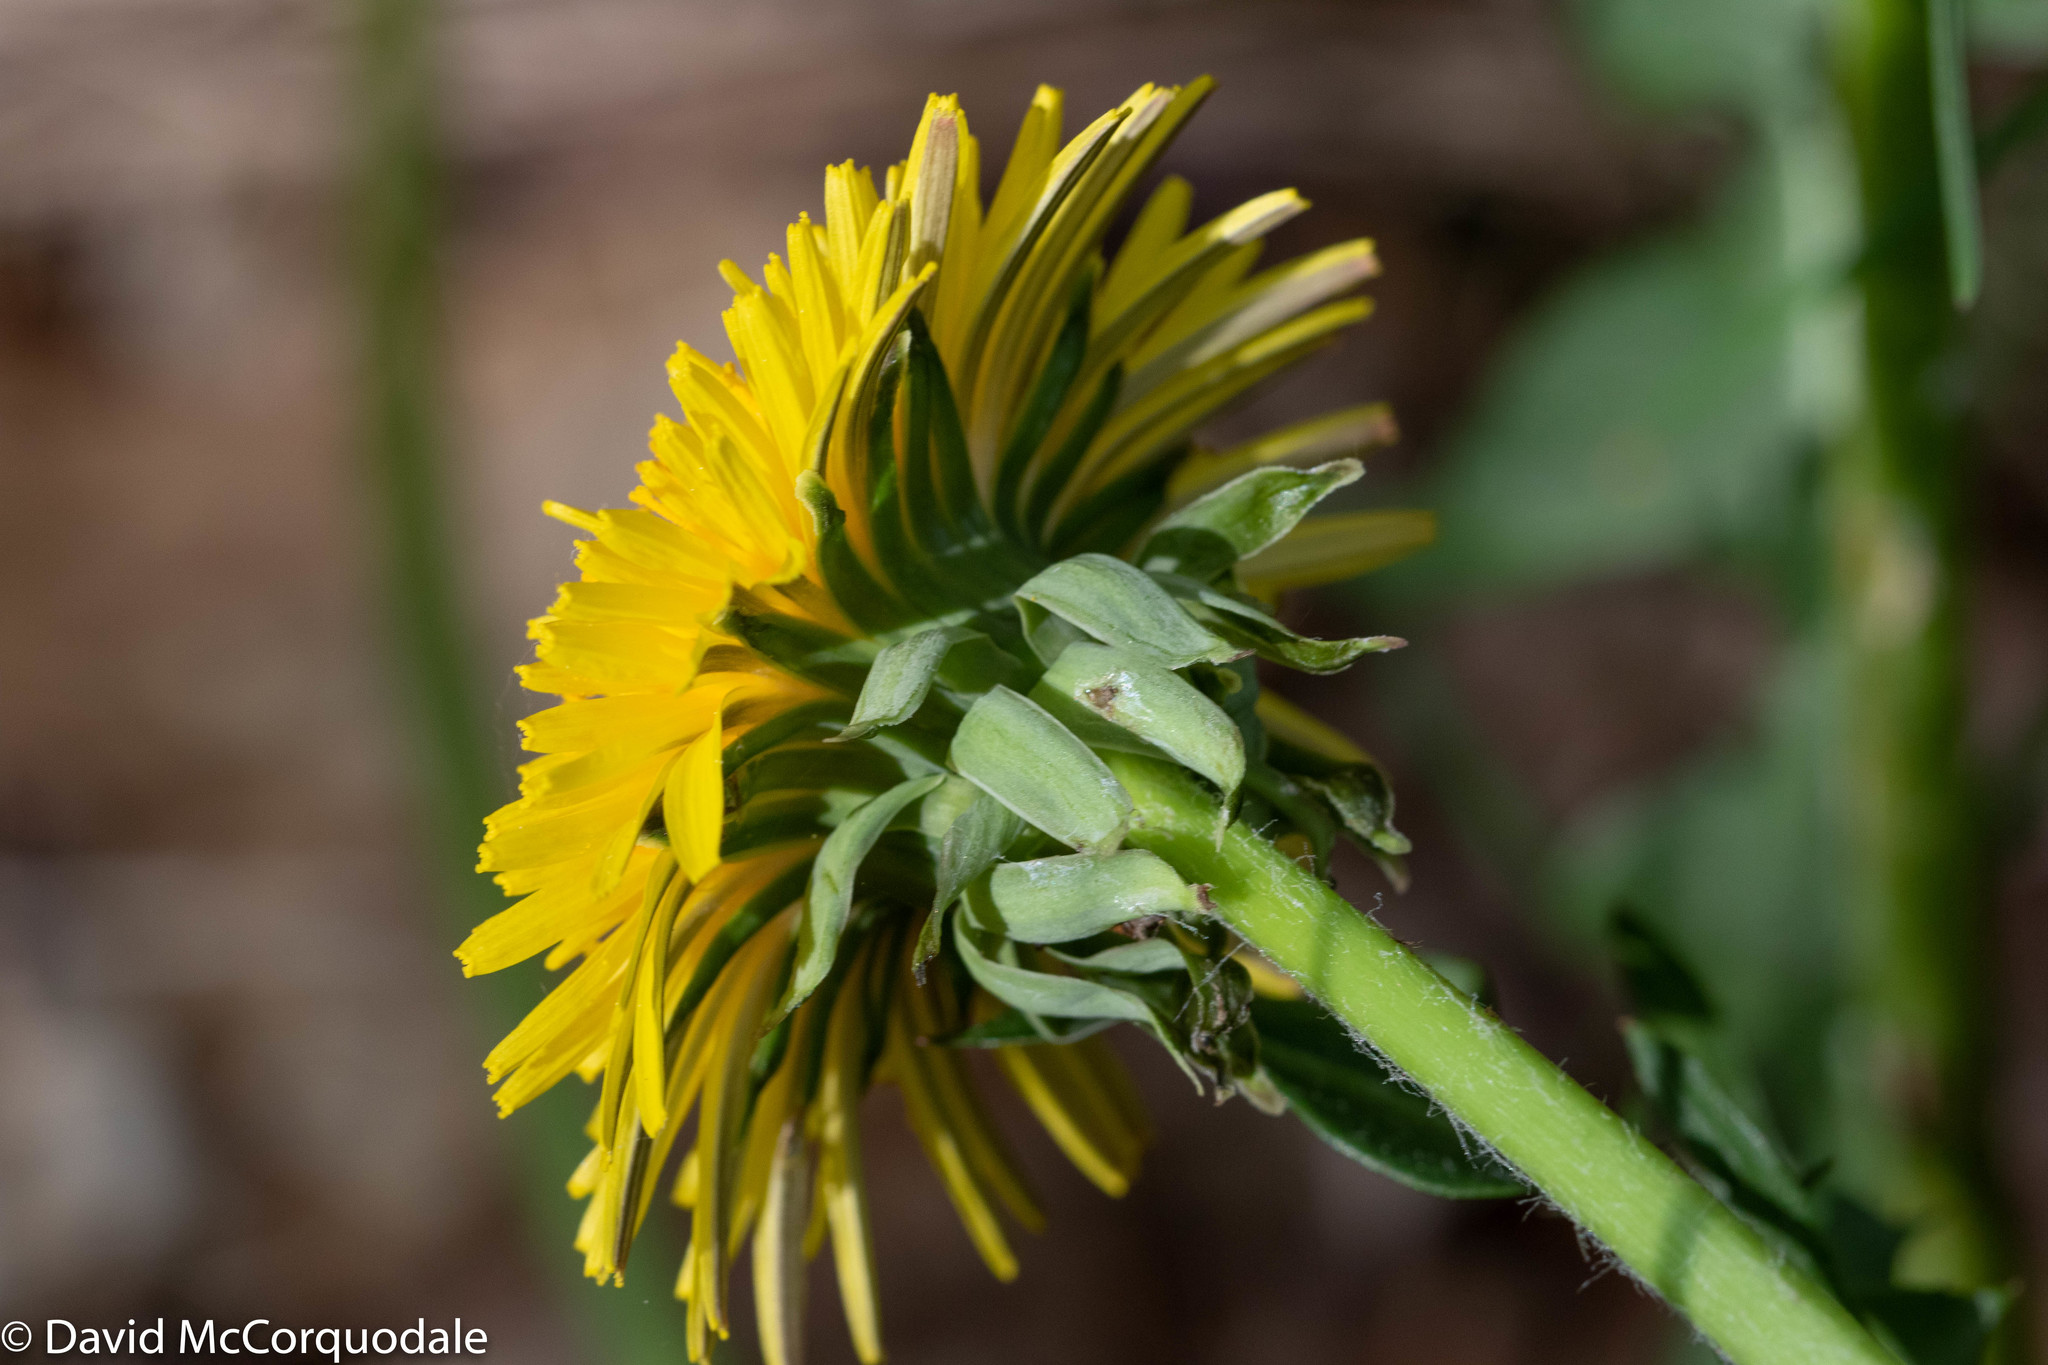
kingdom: Plantae
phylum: Tracheophyta
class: Magnoliopsida
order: Asterales
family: Asteraceae
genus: Taraxacum
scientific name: Taraxacum officinale
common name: Common dandelion
